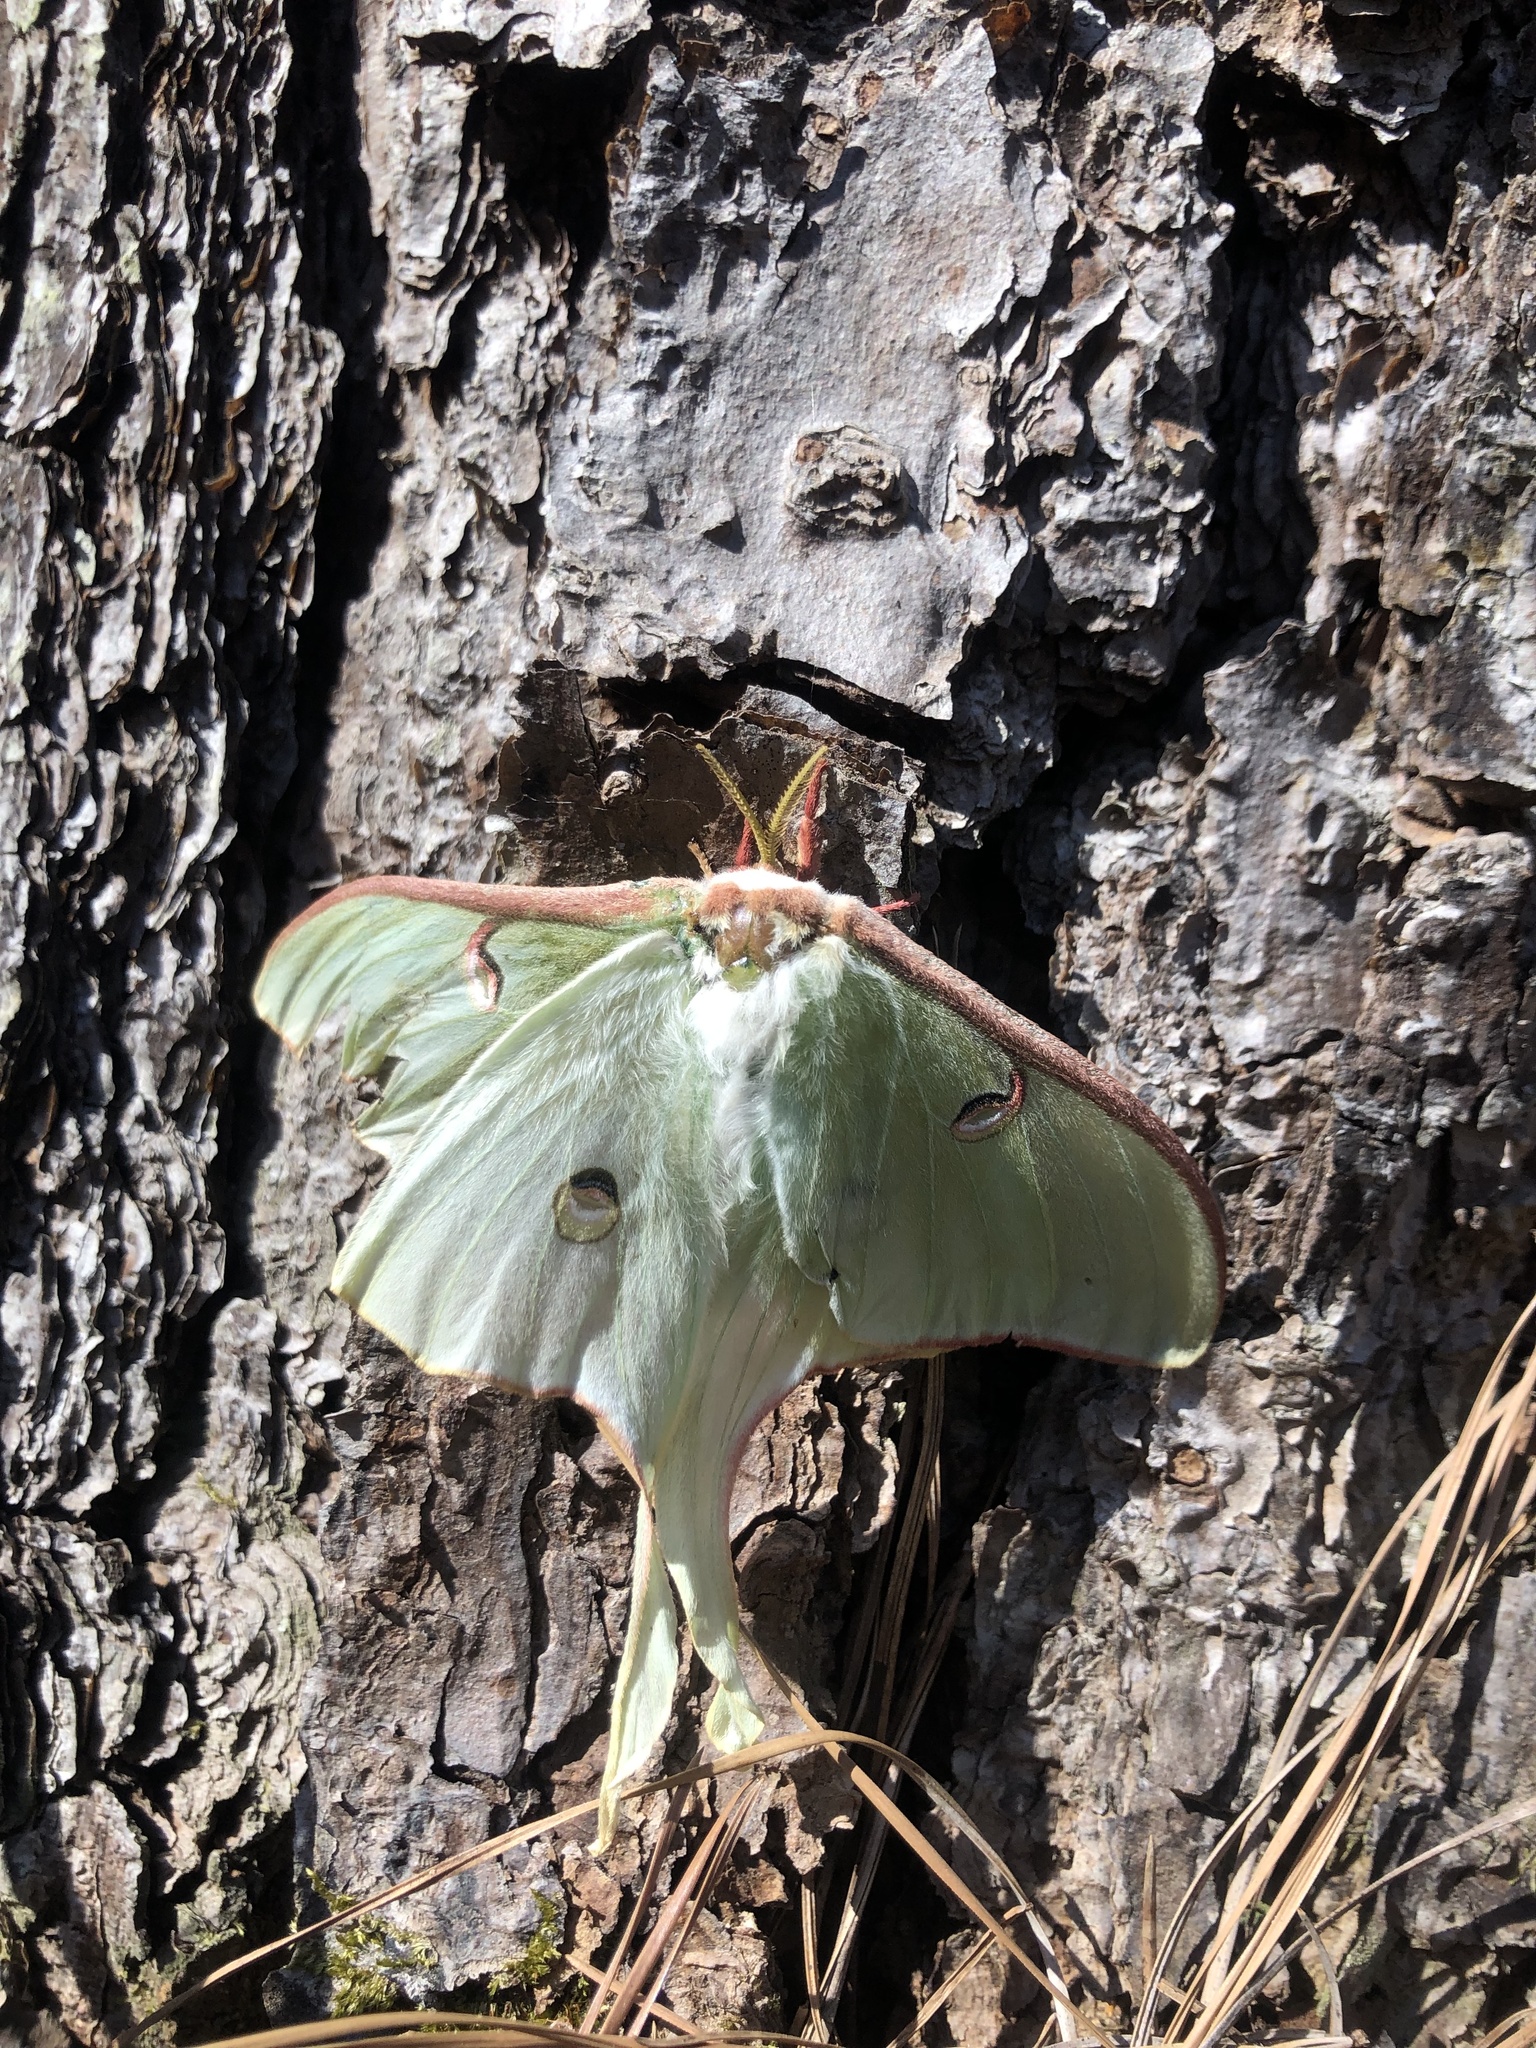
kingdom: Animalia
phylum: Arthropoda
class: Insecta
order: Lepidoptera
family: Saturniidae
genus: Actias
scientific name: Actias luna
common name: Luna moth
